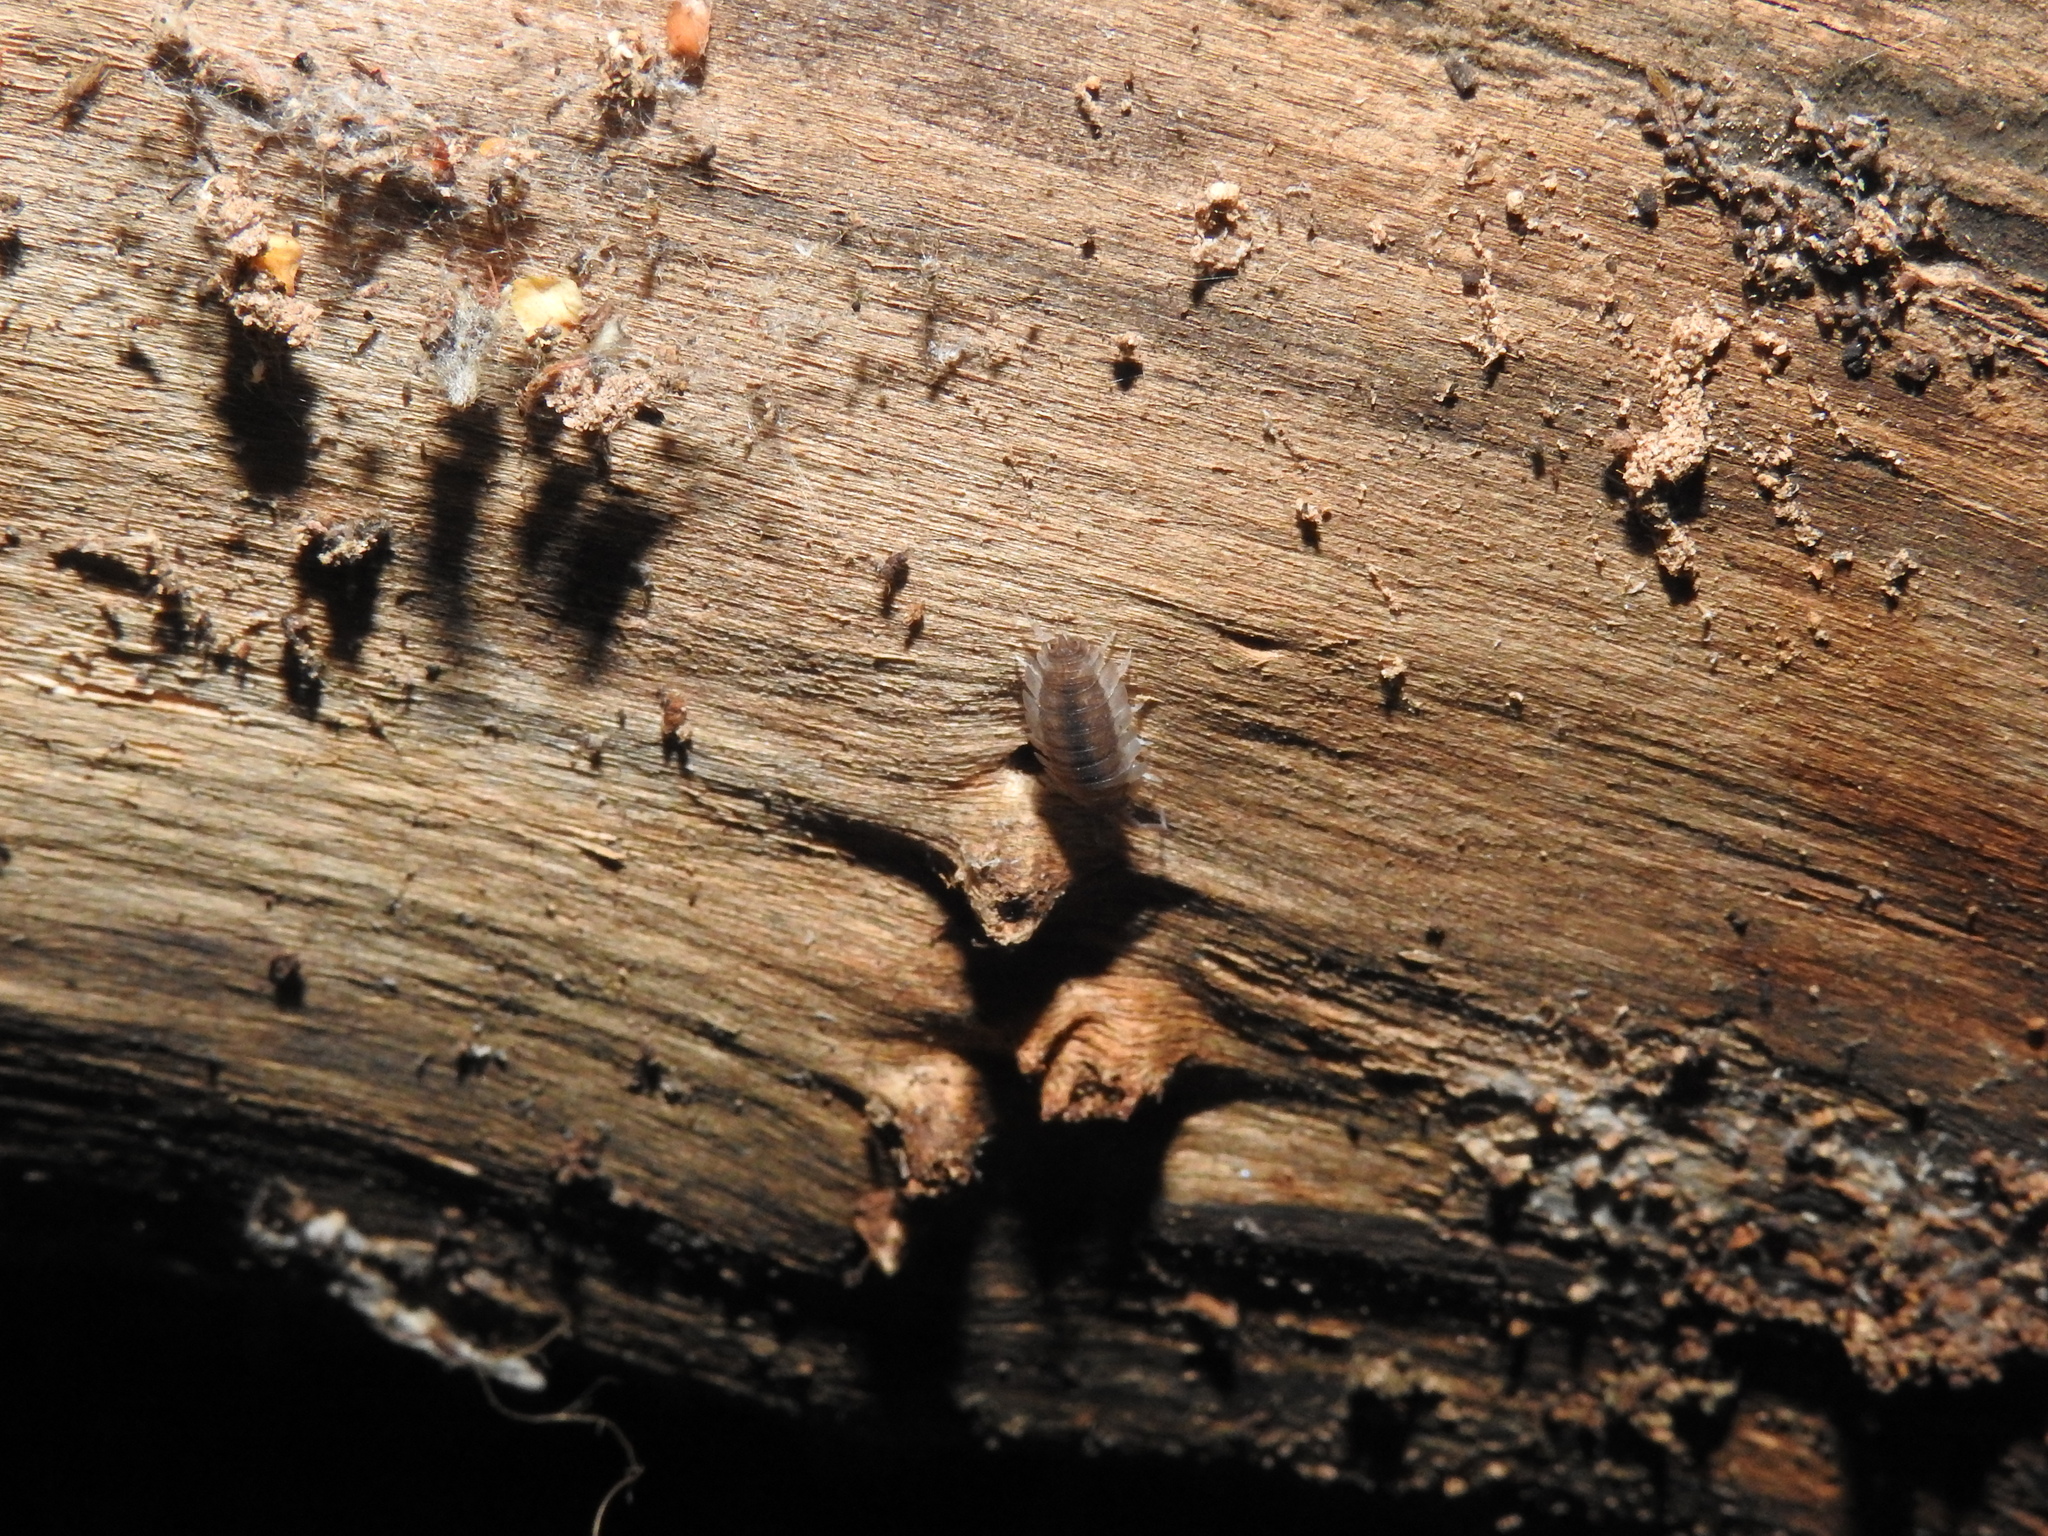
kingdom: Animalia
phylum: Arthropoda
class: Malacostraca
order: Isopoda
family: Porcellionidae
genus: Porcellio
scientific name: Porcellio scaber
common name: Common rough woodlouse
